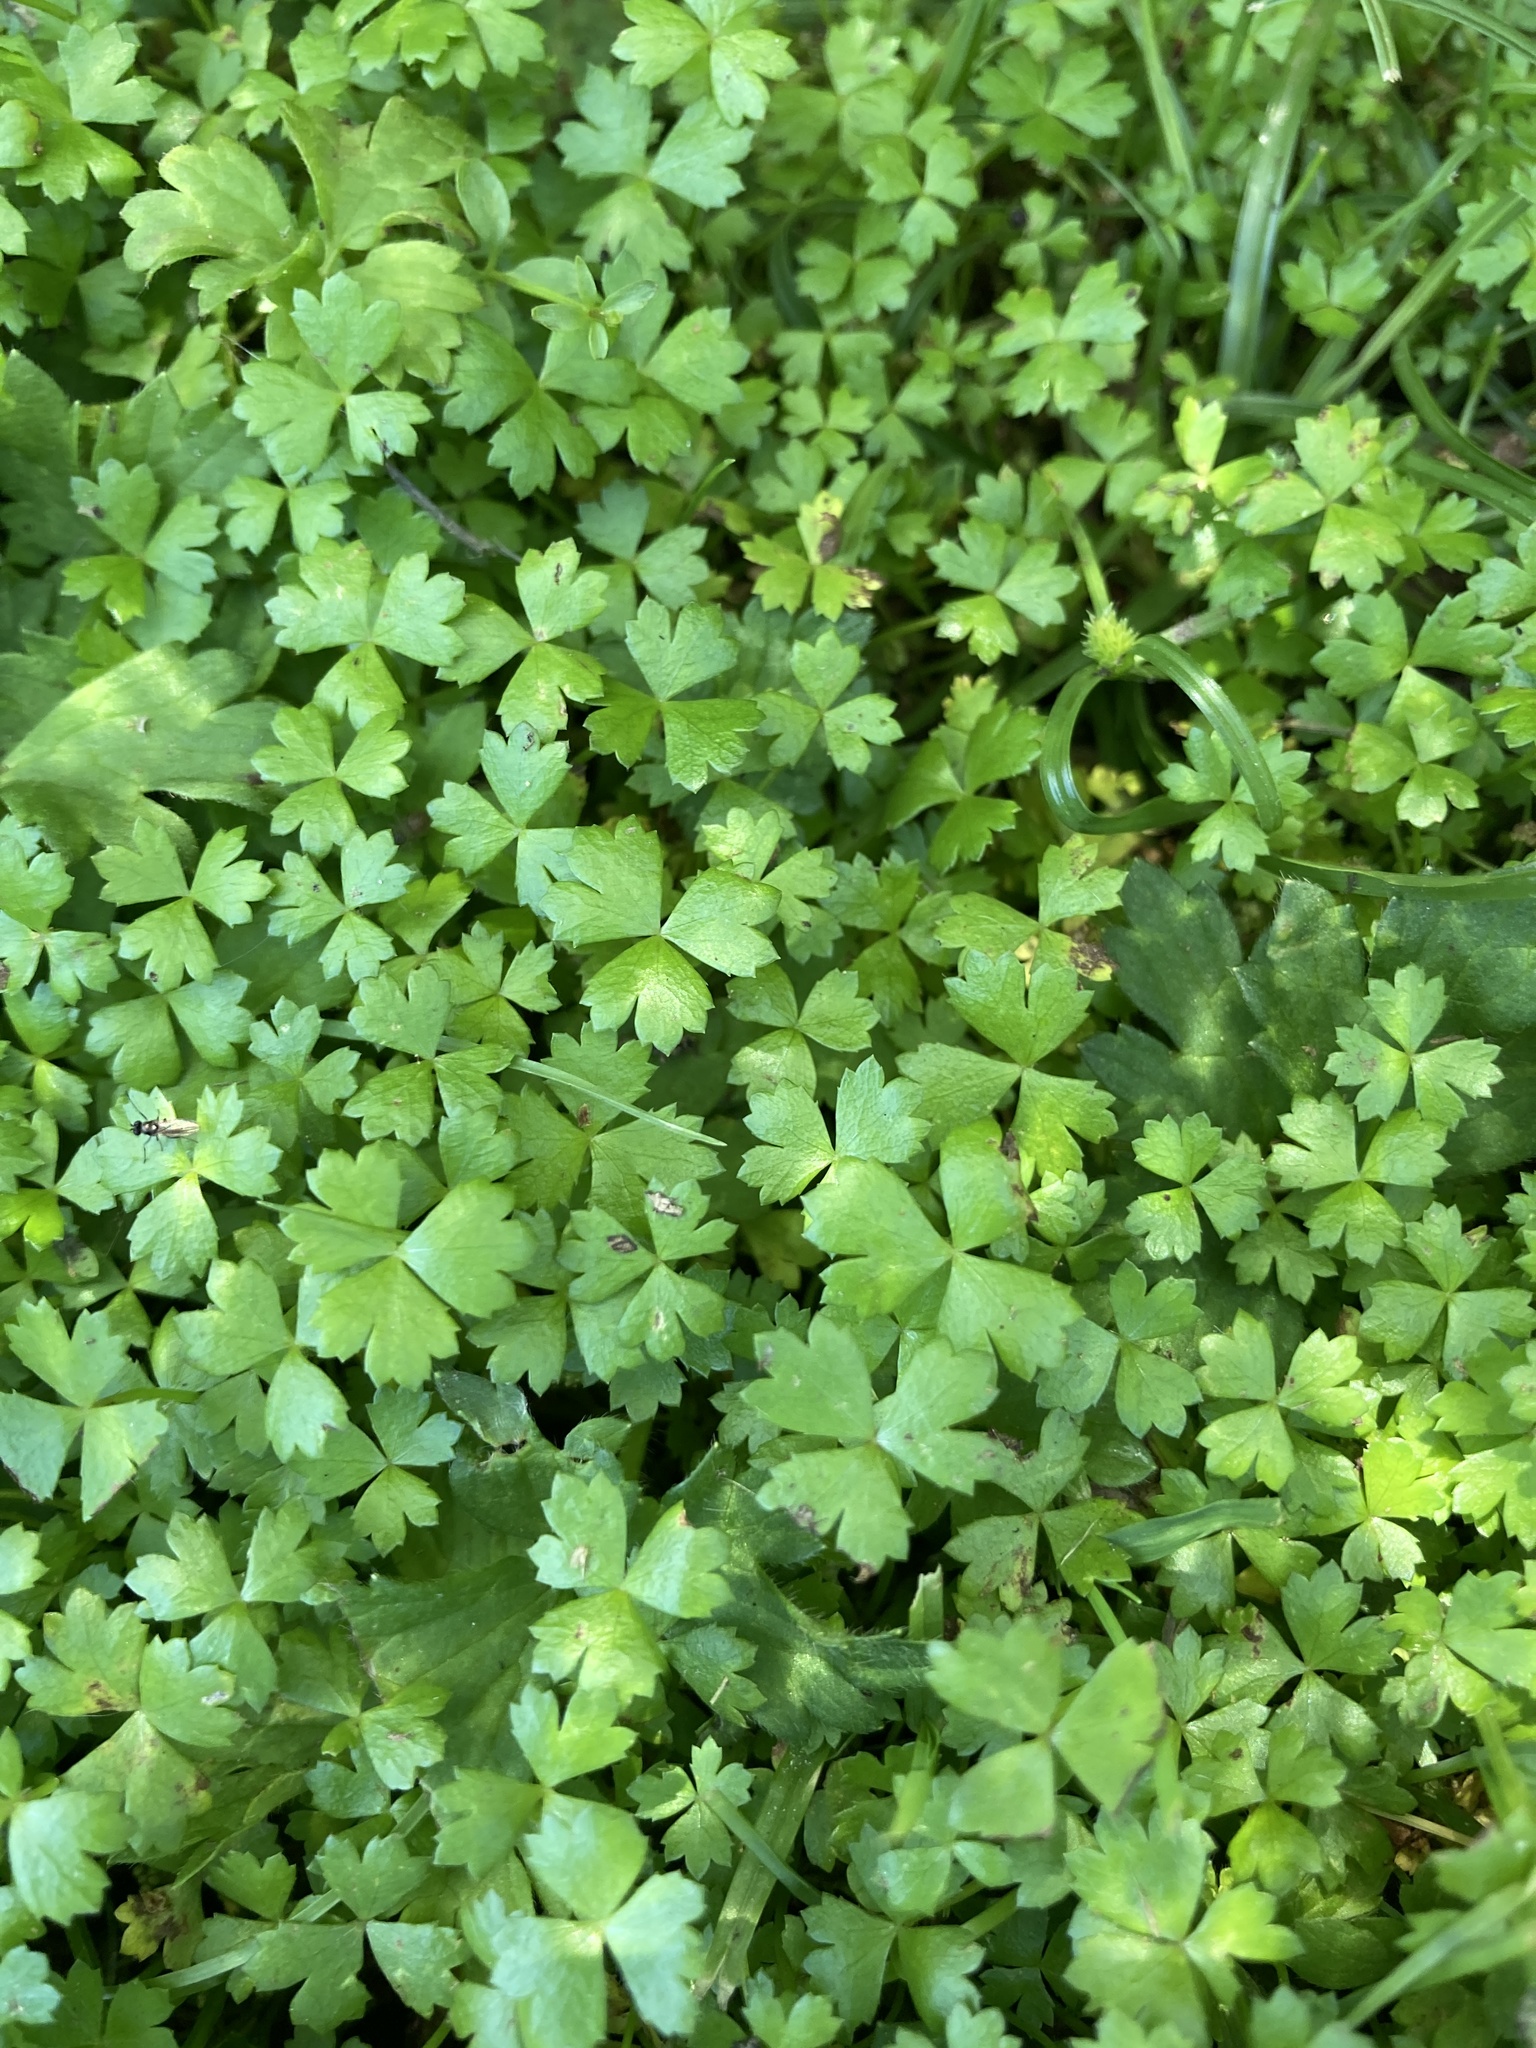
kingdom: Plantae
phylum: Tracheophyta
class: Magnoliopsida
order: Apiales
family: Araliaceae
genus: Hydrocotyle
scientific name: Hydrocotyle tripartita
